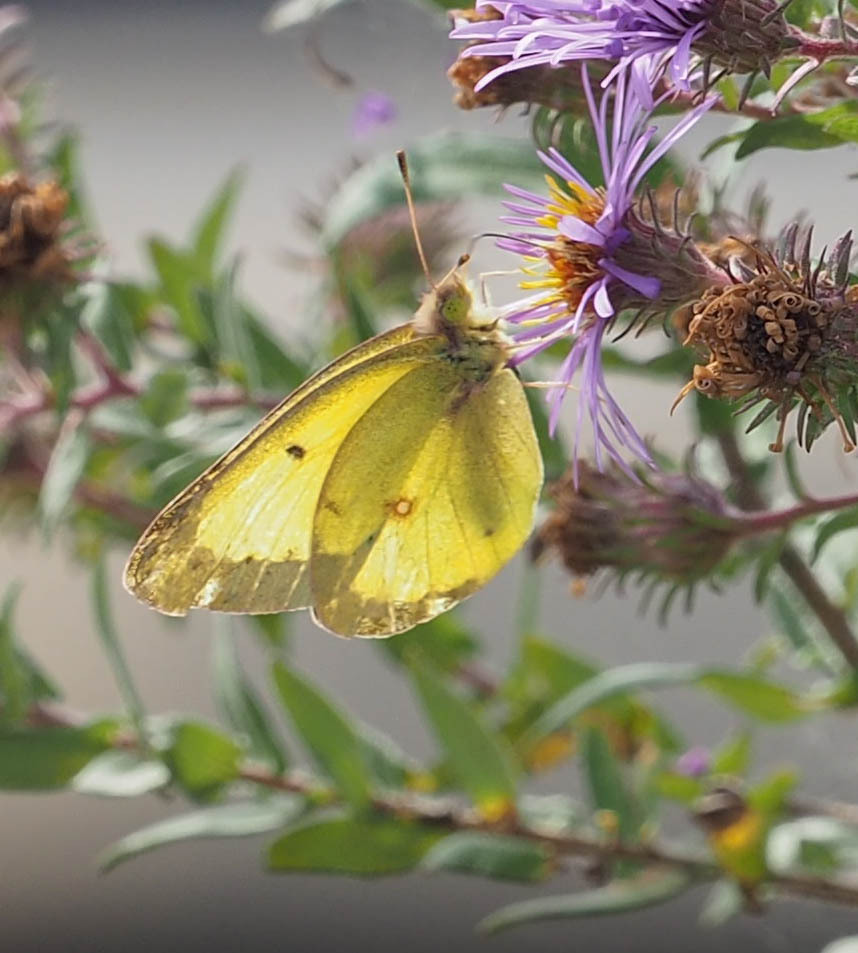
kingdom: Animalia
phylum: Arthropoda
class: Insecta
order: Lepidoptera
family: Pieridae
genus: Colias
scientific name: Colias philodice
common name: Clouded sulphur
